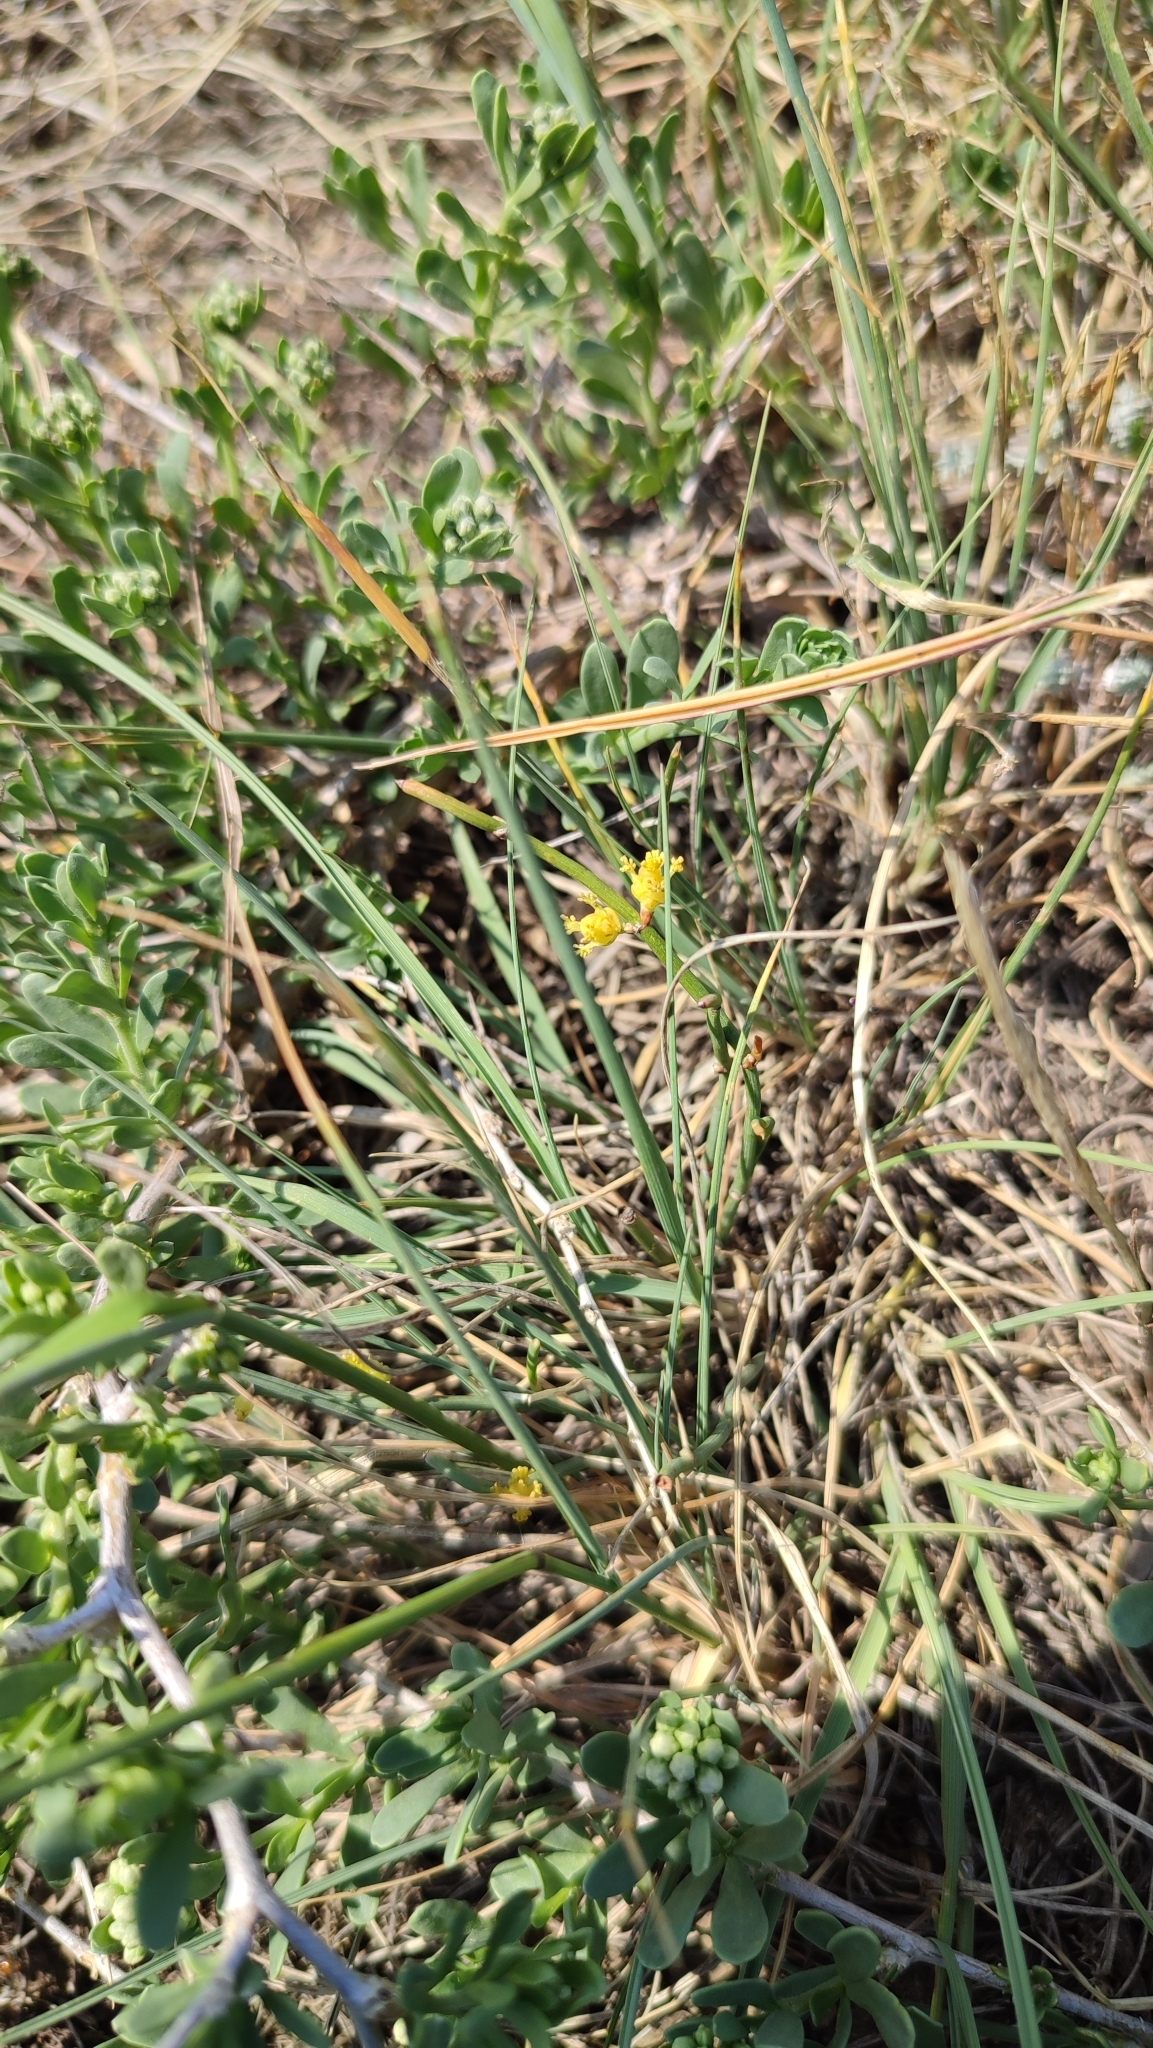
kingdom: Plantae
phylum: Tracheophyta
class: Gnetopsida
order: Ephedrales
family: Ephedraceae
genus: Ephedra
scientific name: Ephedra distachya
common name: Sea grape
